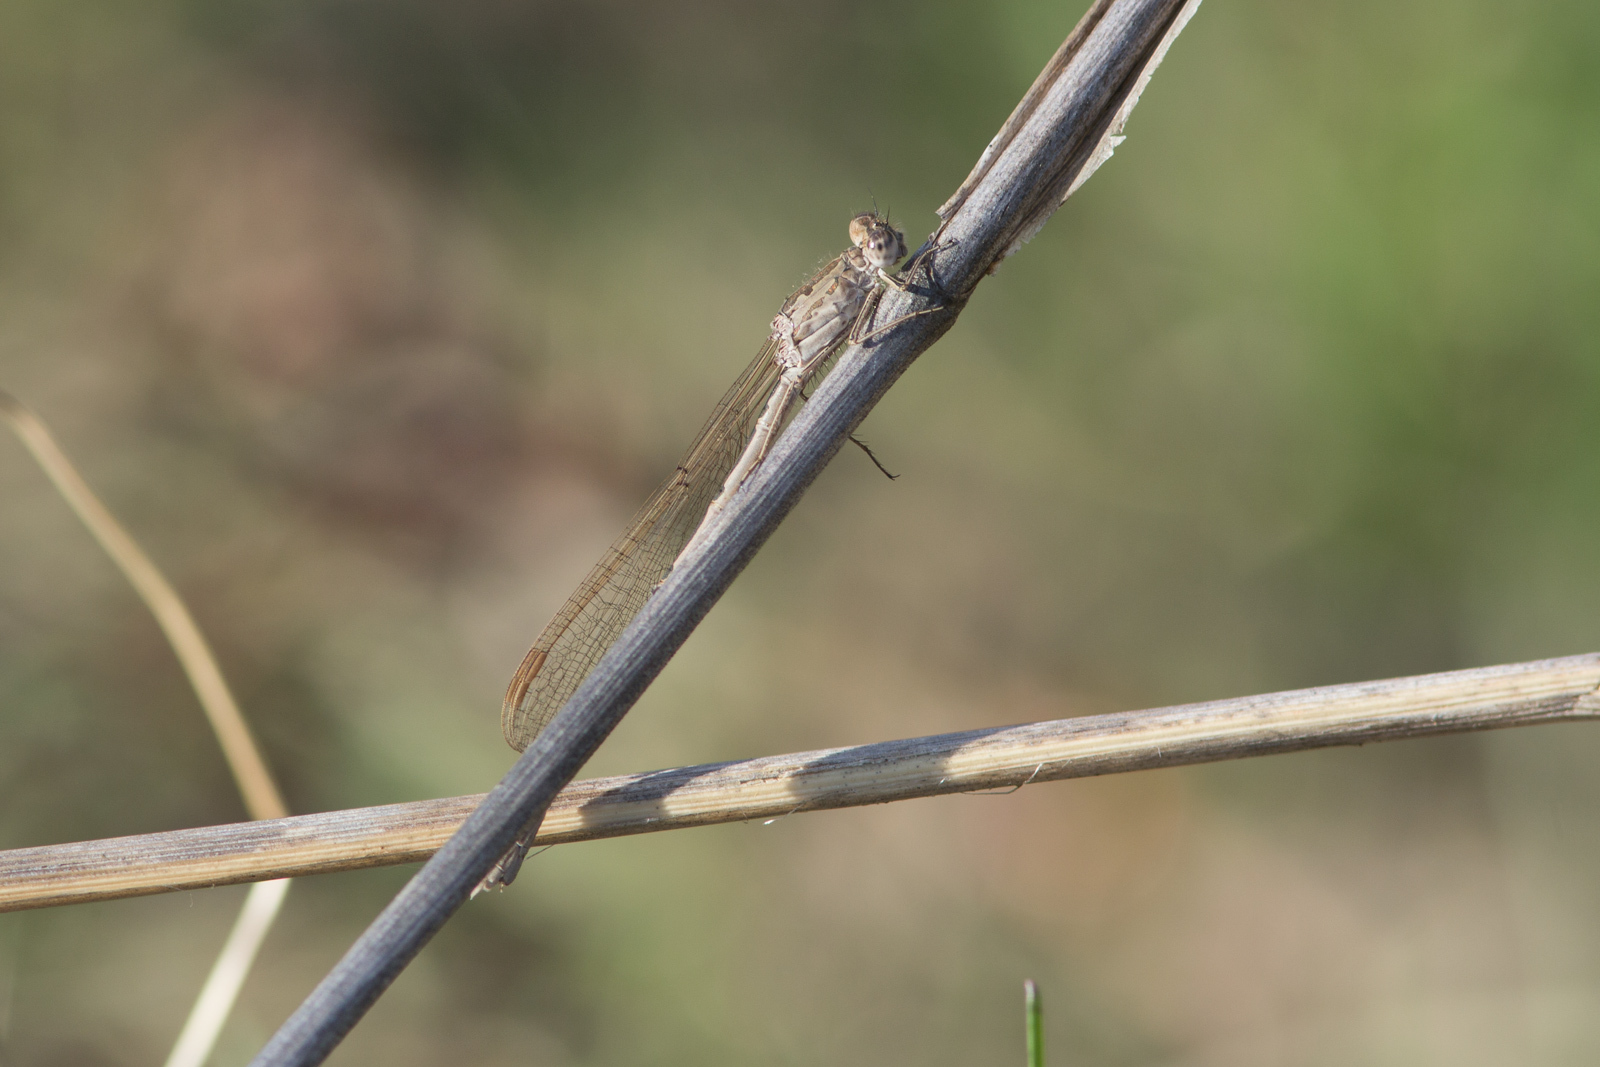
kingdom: Animalia
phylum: Arthropoda
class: Insecta
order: Odonata
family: Lestidae
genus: Sympecma
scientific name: Sympecma paedisca
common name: Siberian winter damsel
